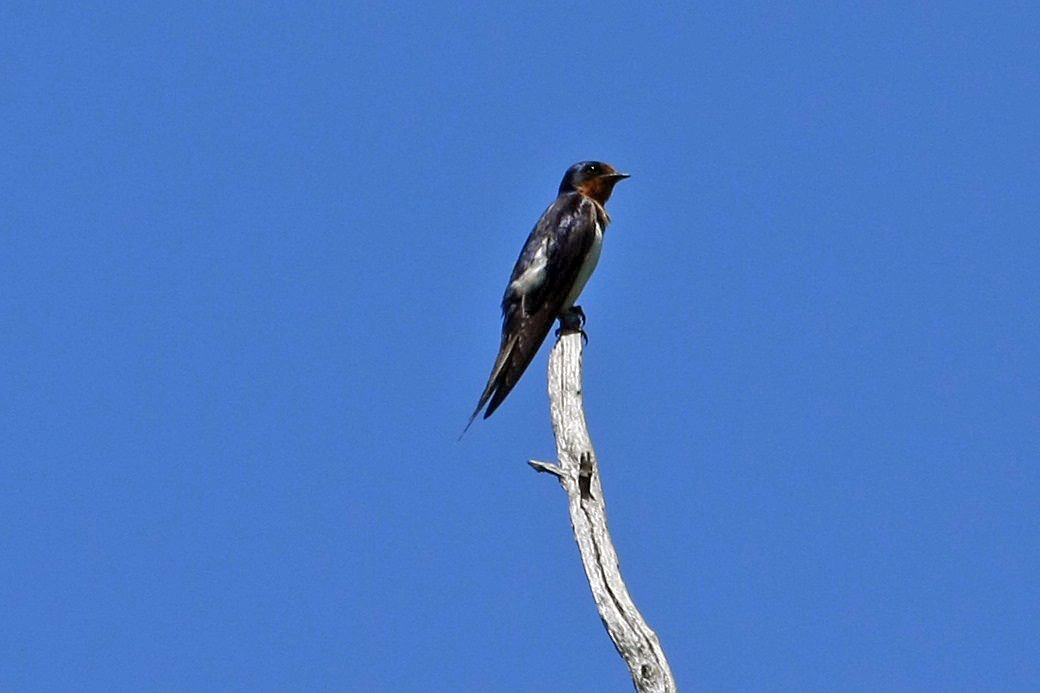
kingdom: Animalia
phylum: Chordata
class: Aves
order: Passeriformes
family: Hirundinidae
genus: Hirundo
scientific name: Hirundo rustica
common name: Barn swallow
